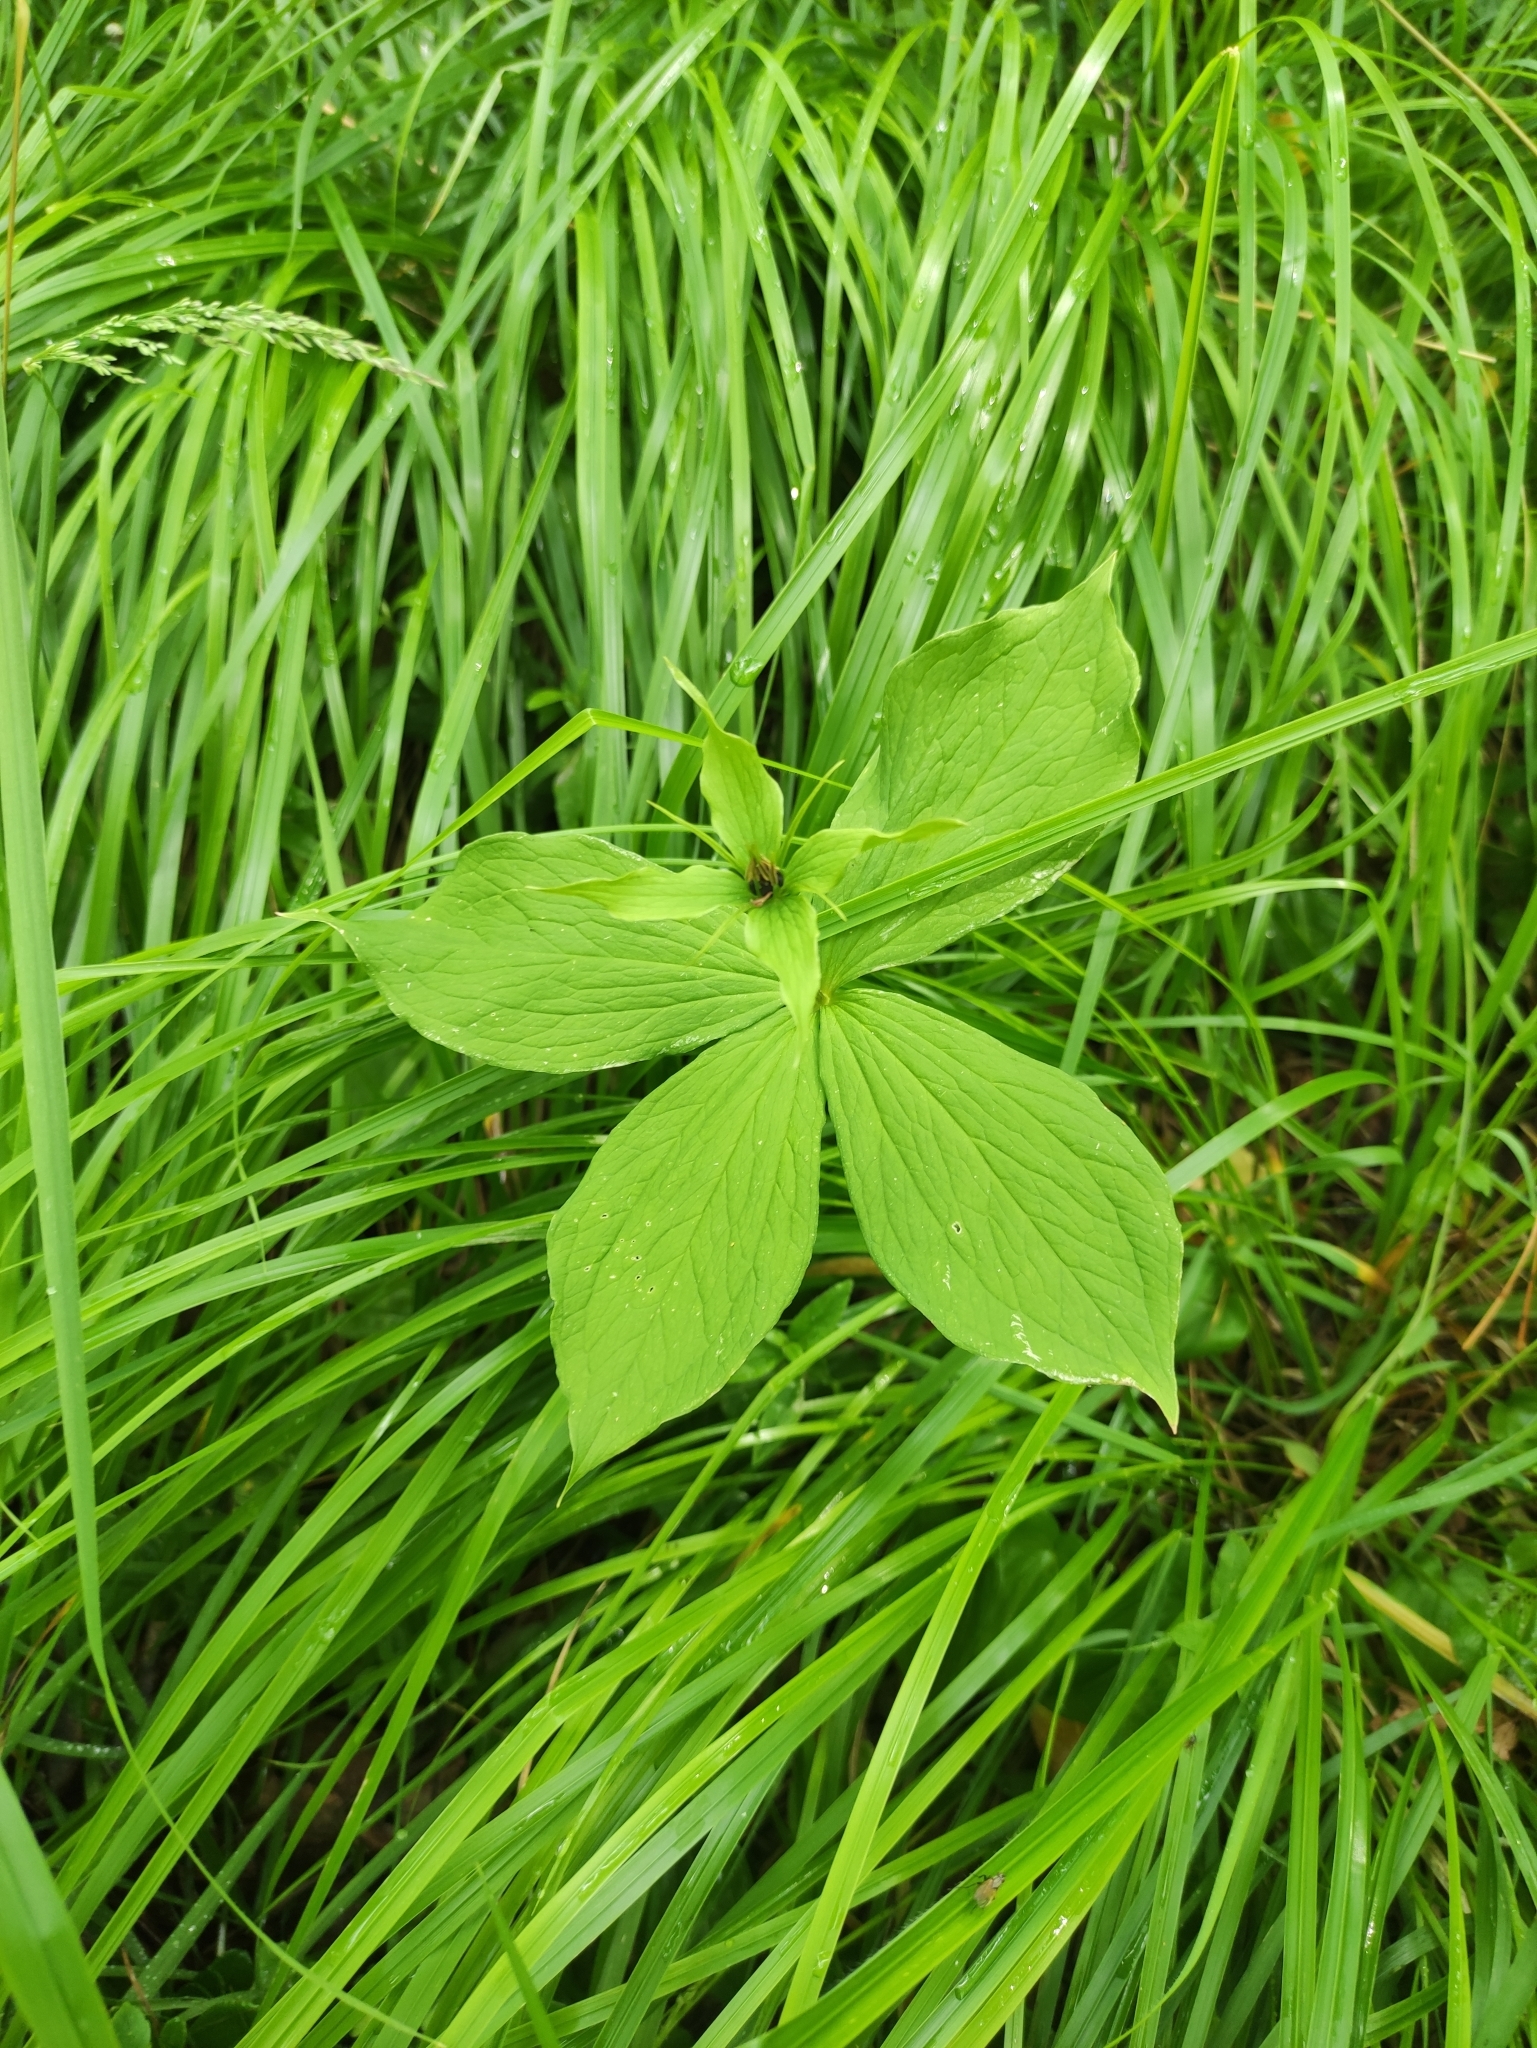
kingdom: Plantae
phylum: Tracheophyta
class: Liliopsida
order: Liliales
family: Melanthiaceae
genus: Paris
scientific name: Paris quadrifolia
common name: Herb-paris
